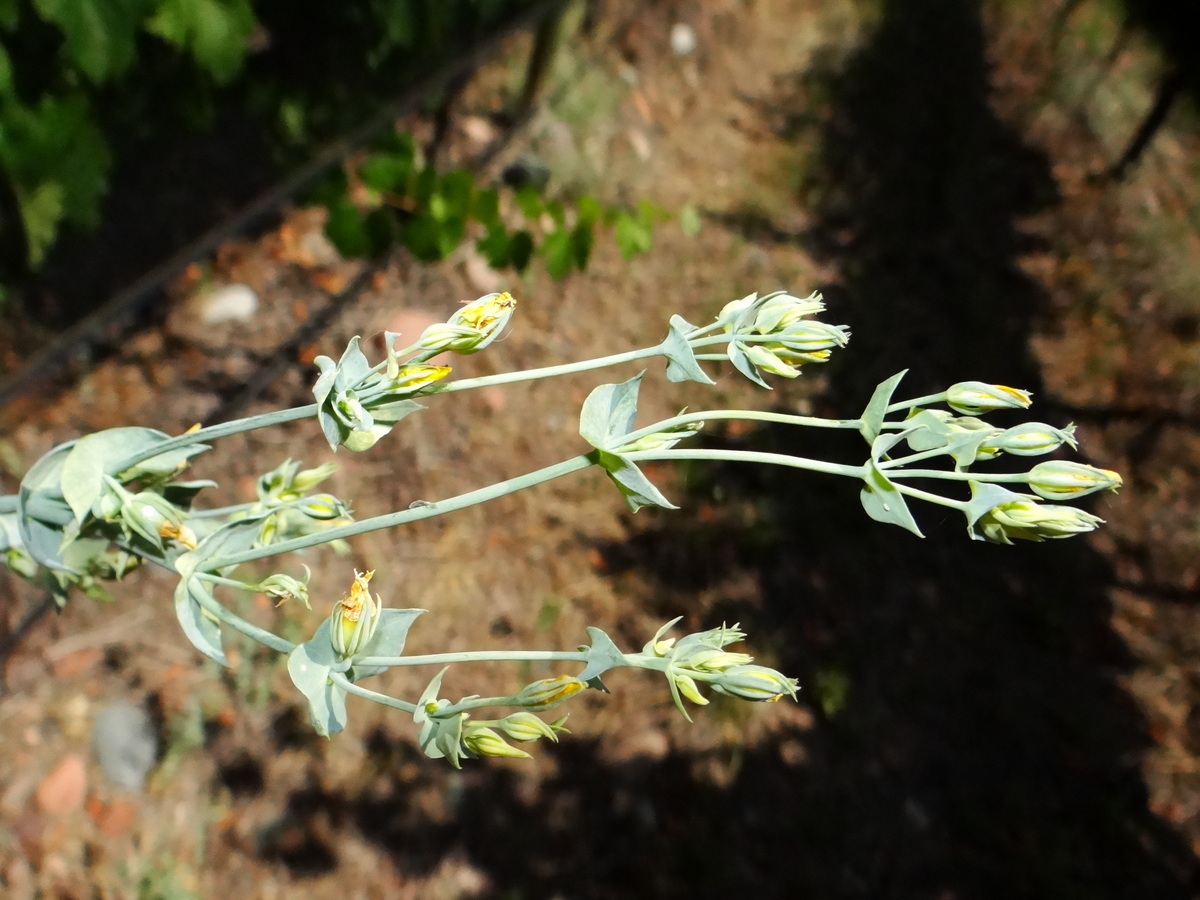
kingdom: Plantae
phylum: Tracheophyta
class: Magnoliopsida
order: Gentianales
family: Gentianaceae
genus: Blackstonia
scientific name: Blackstonia perfoliata
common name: Yellow-wort
